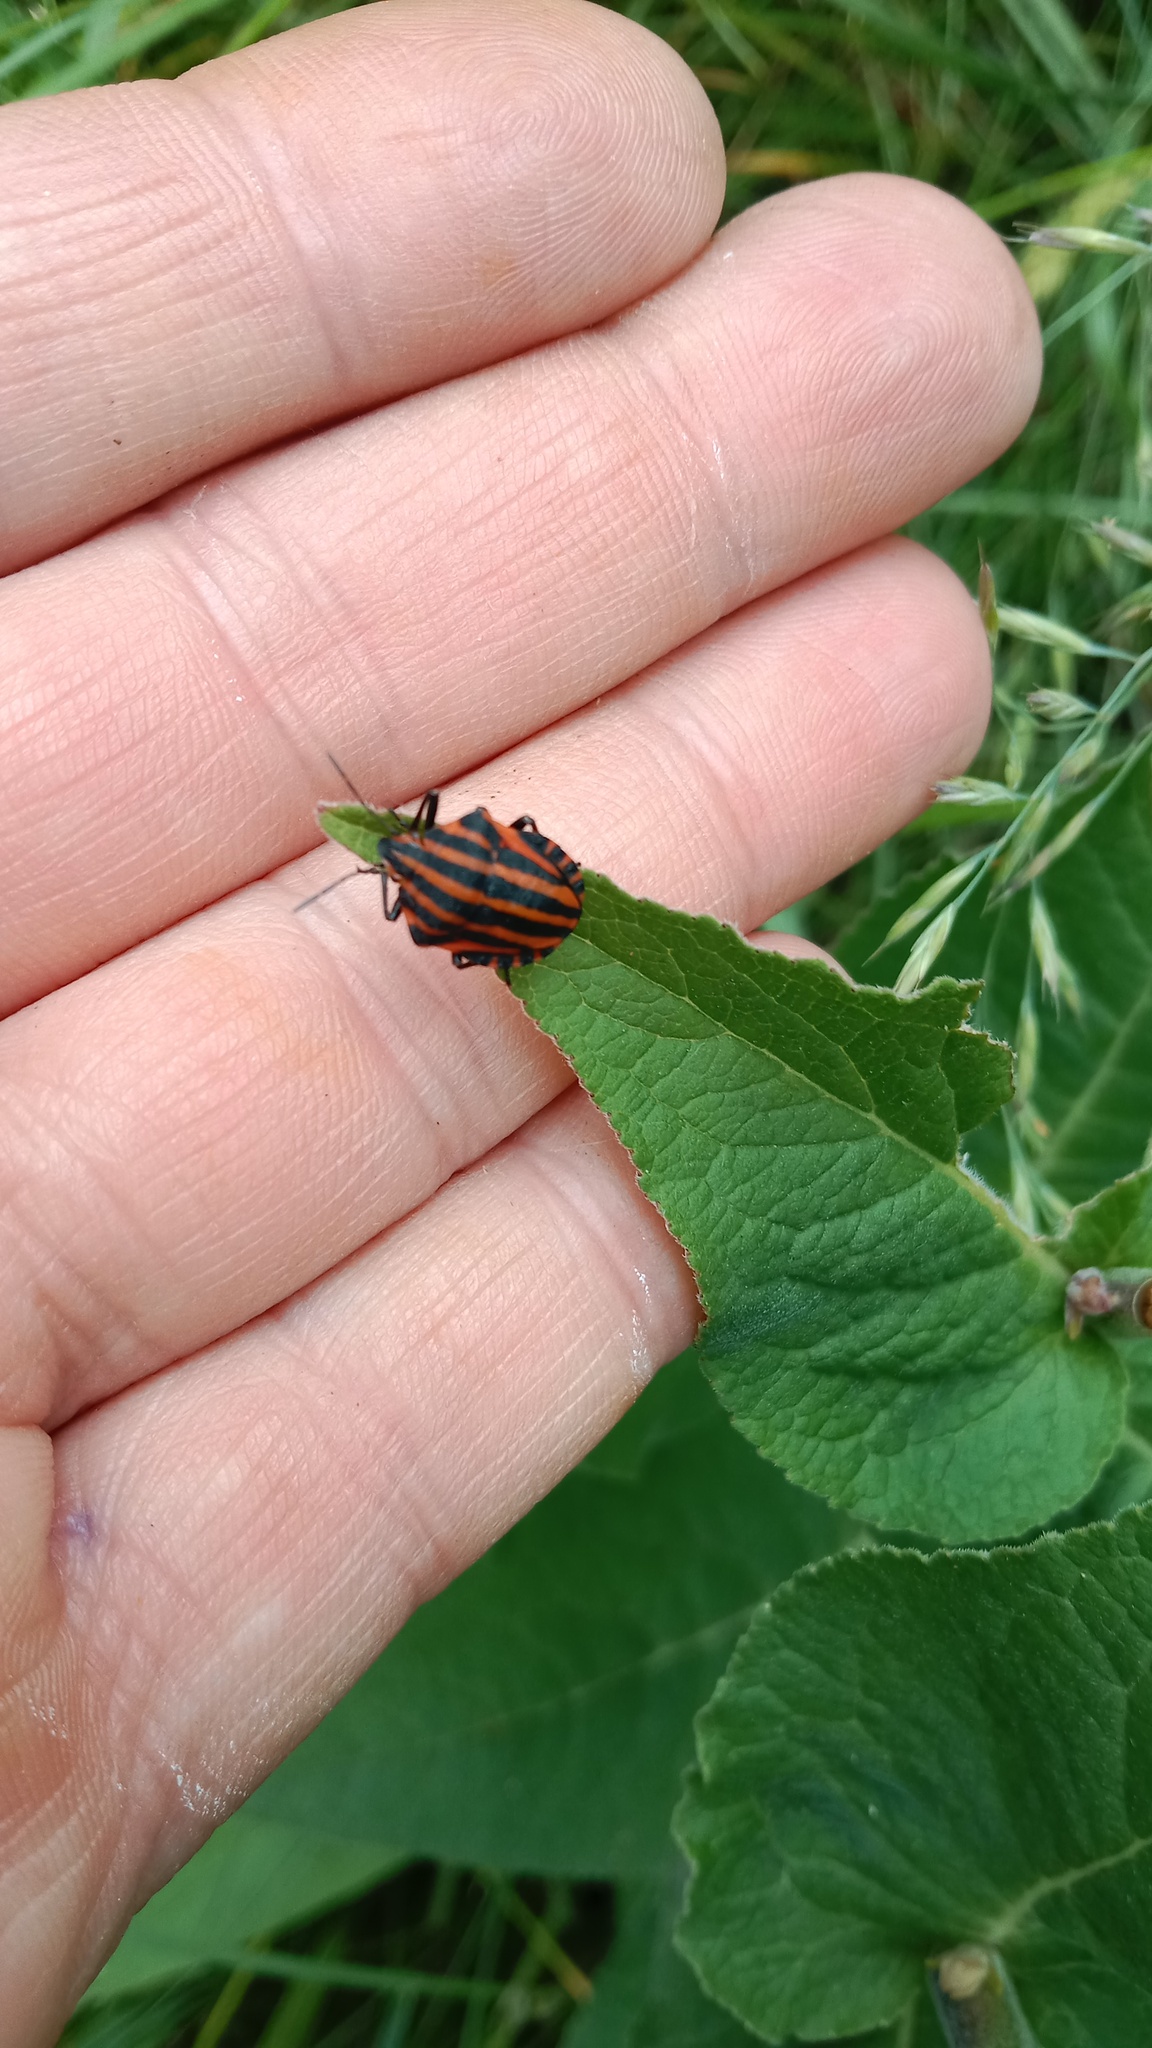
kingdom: Animalia
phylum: Arthropoda
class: Insecta
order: Hemiptera
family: Pentatomidae
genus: Graphosoma
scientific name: Graphosoma italicum
